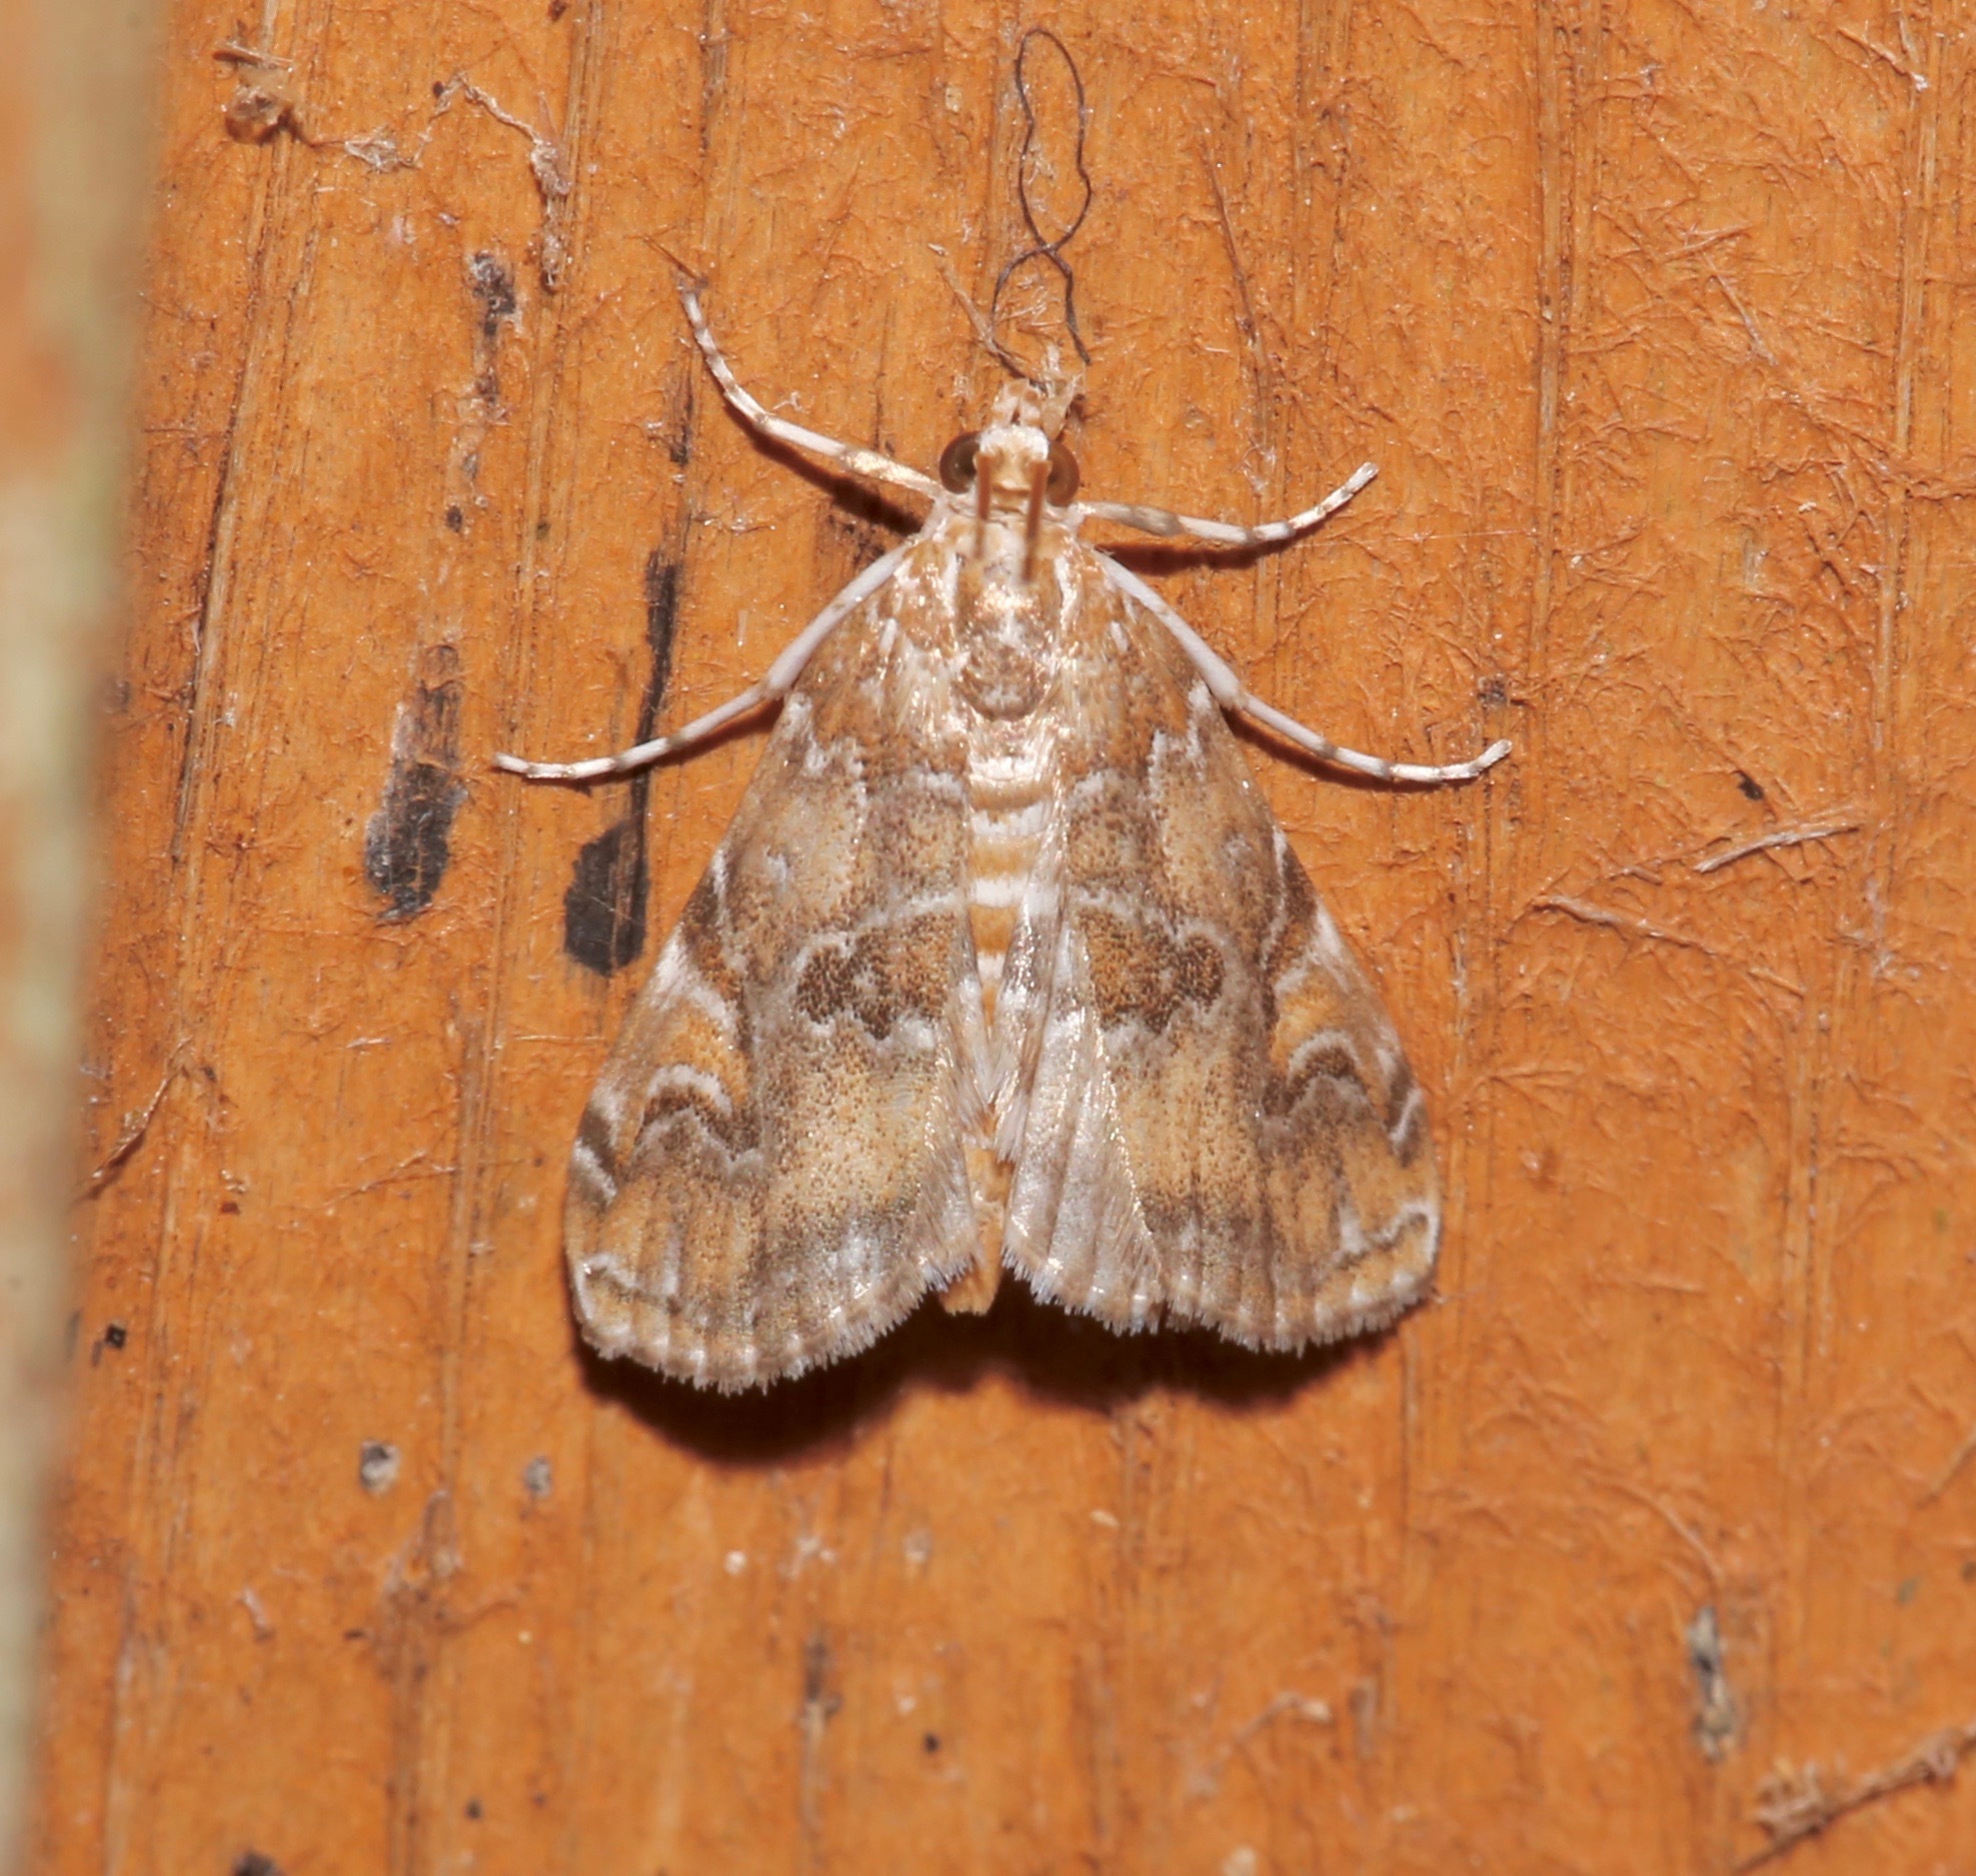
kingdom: Animalia
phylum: Arthropoda
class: Insecta
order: Lepidoptera
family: Crambidae
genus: Elophila
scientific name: Elophila gyralis
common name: Waterlily borer moth
